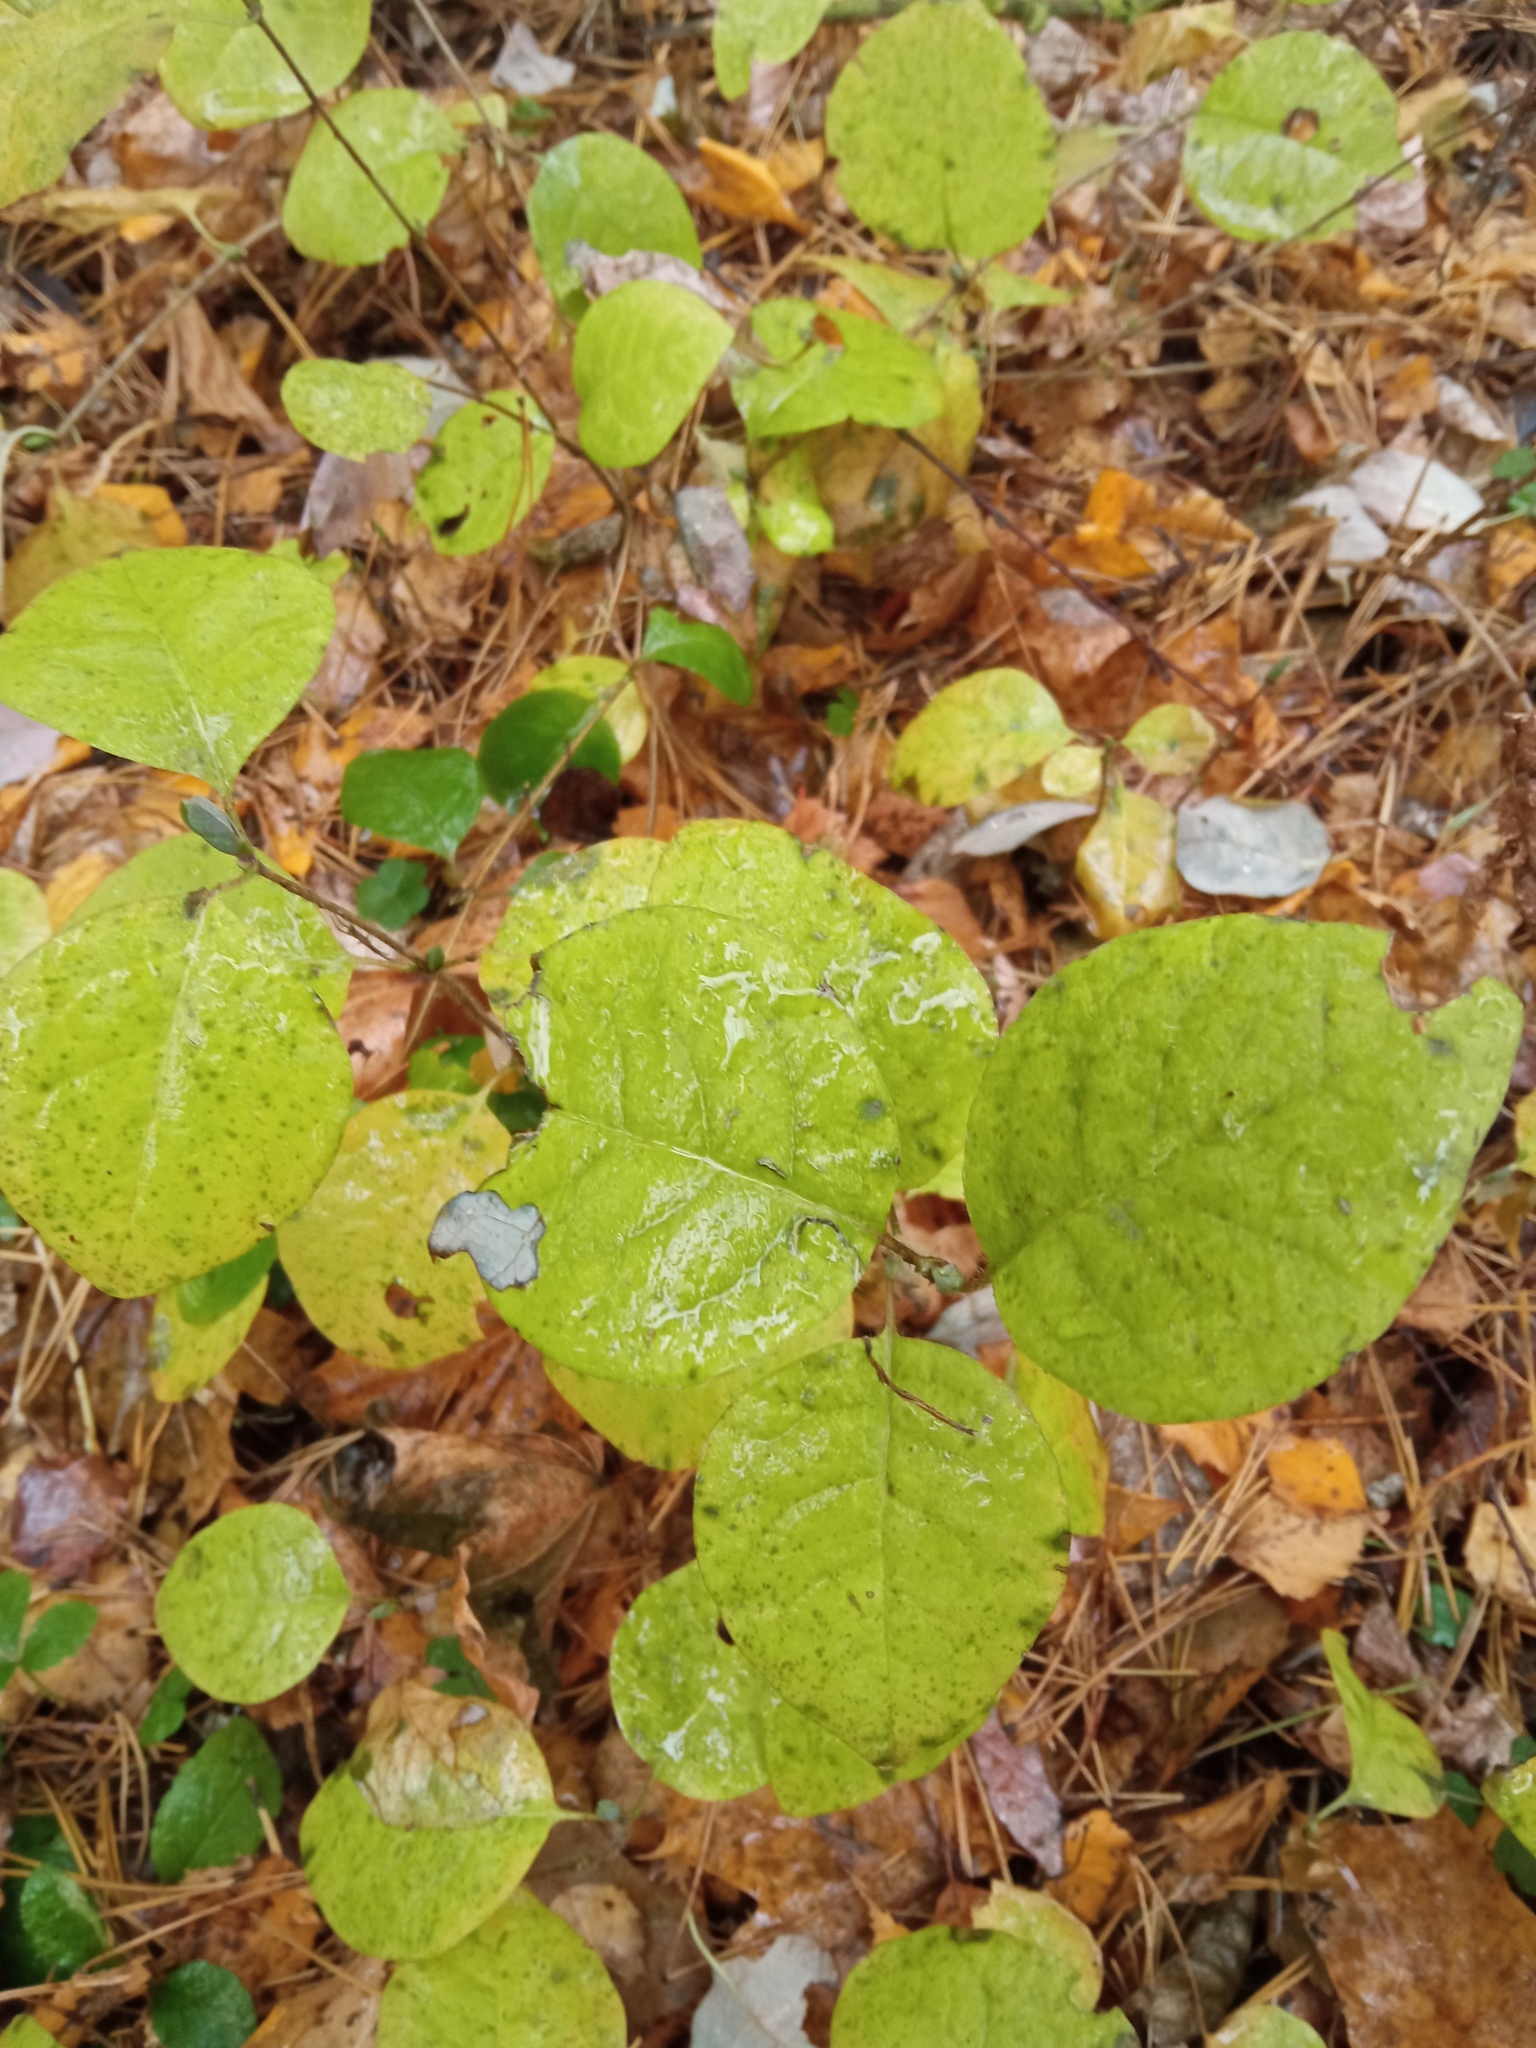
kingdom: Plantae
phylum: Tracheophyta
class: Magnoliopsida
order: Dipsacales
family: Caprifoliaceae
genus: Lonicera
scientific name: Lonicera caprifolium
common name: Perfoliate honeysuckle
